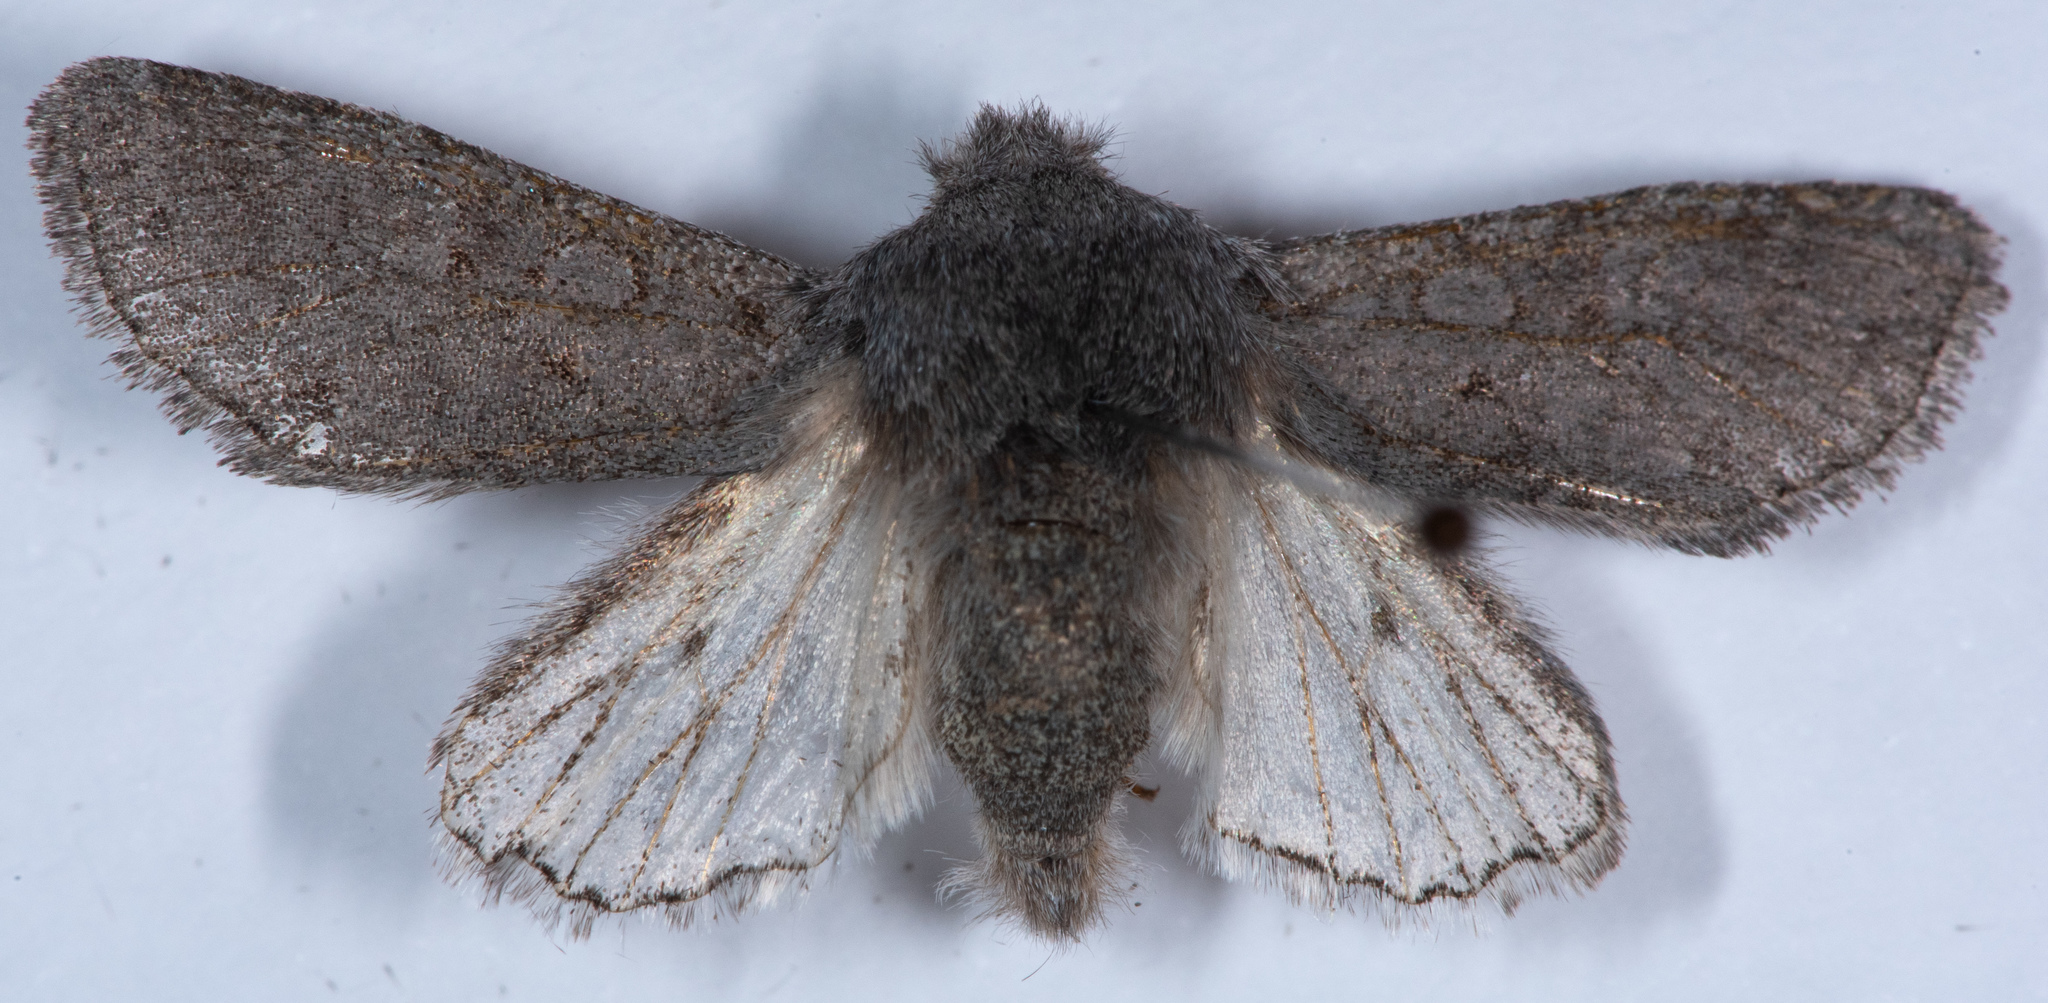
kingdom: Animalia
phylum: Arthropoda
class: Insecta
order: Lepidoptera
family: Noctuidae
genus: Psaphida
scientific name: Psaphida damalis
